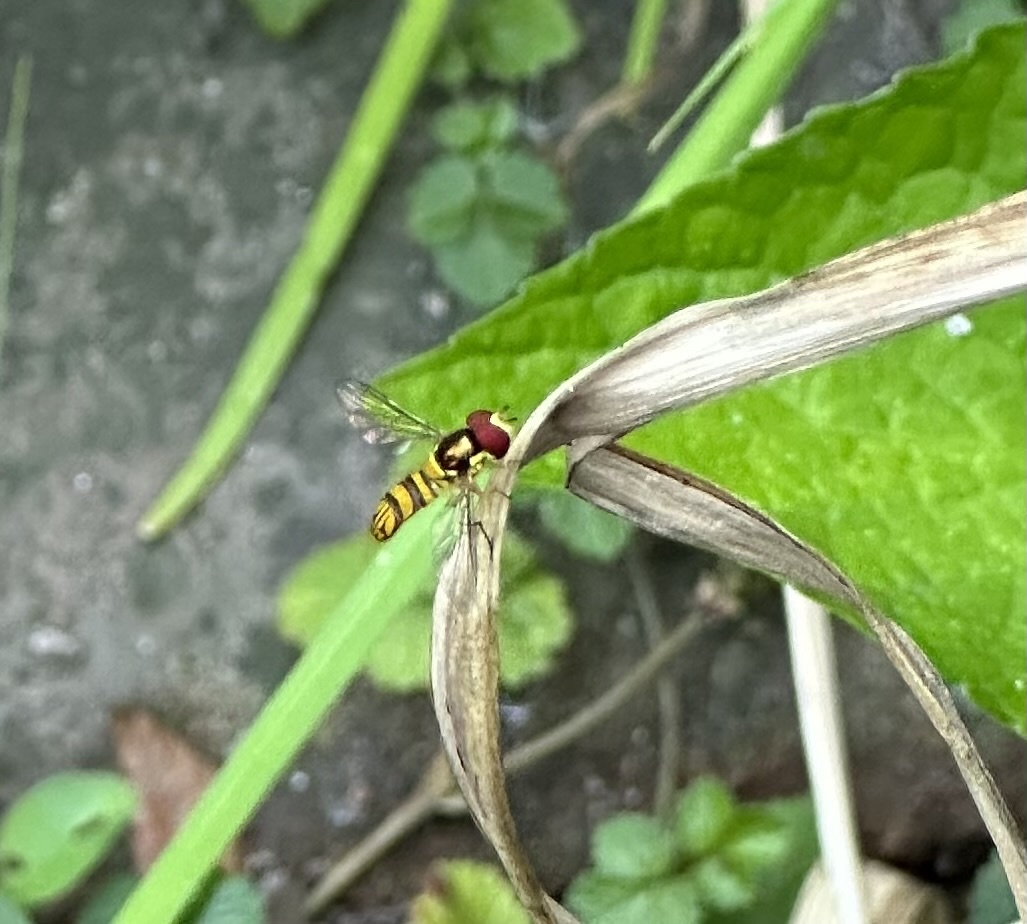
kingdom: Animalia
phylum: Arthropoda
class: Insecta
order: Diptera
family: Syrphidae
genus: Allograpta
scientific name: Allograpta obliqua
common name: Common oblique syrphid
